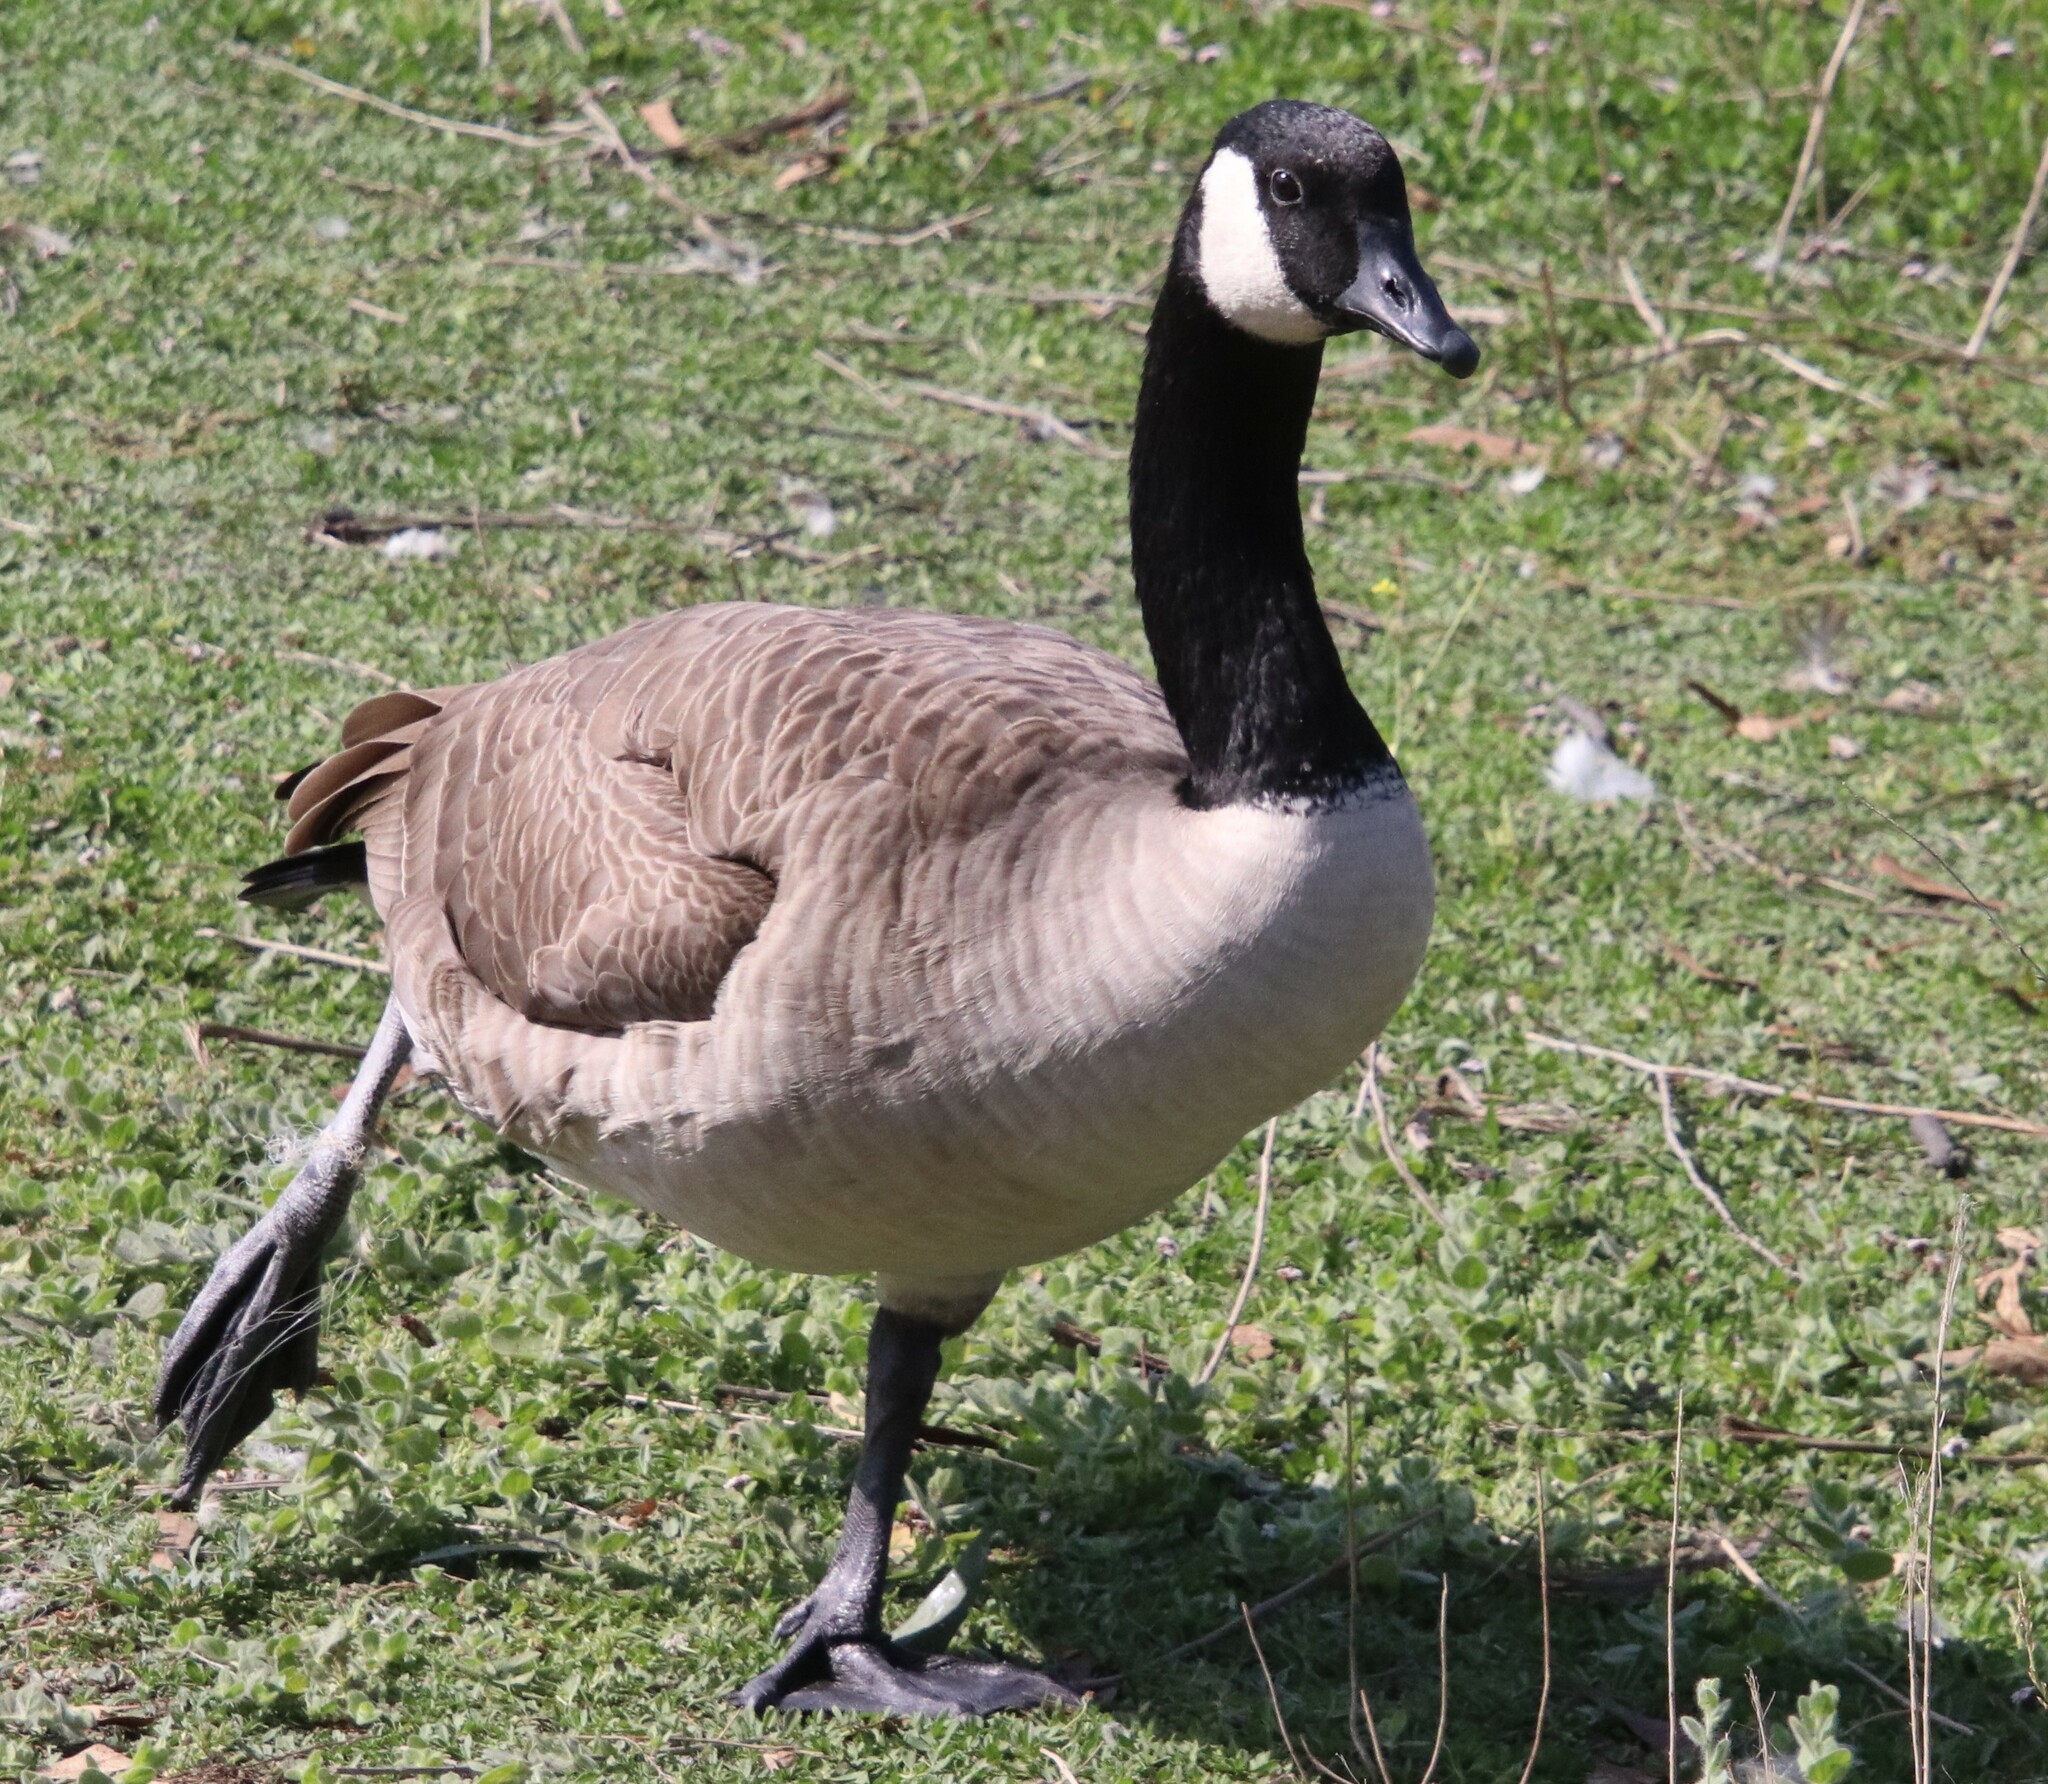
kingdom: Animalia
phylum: Chordata
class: Aves
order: Anseriformes
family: Anatidae
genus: Branta
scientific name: Branta canadensis
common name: Canada goose
